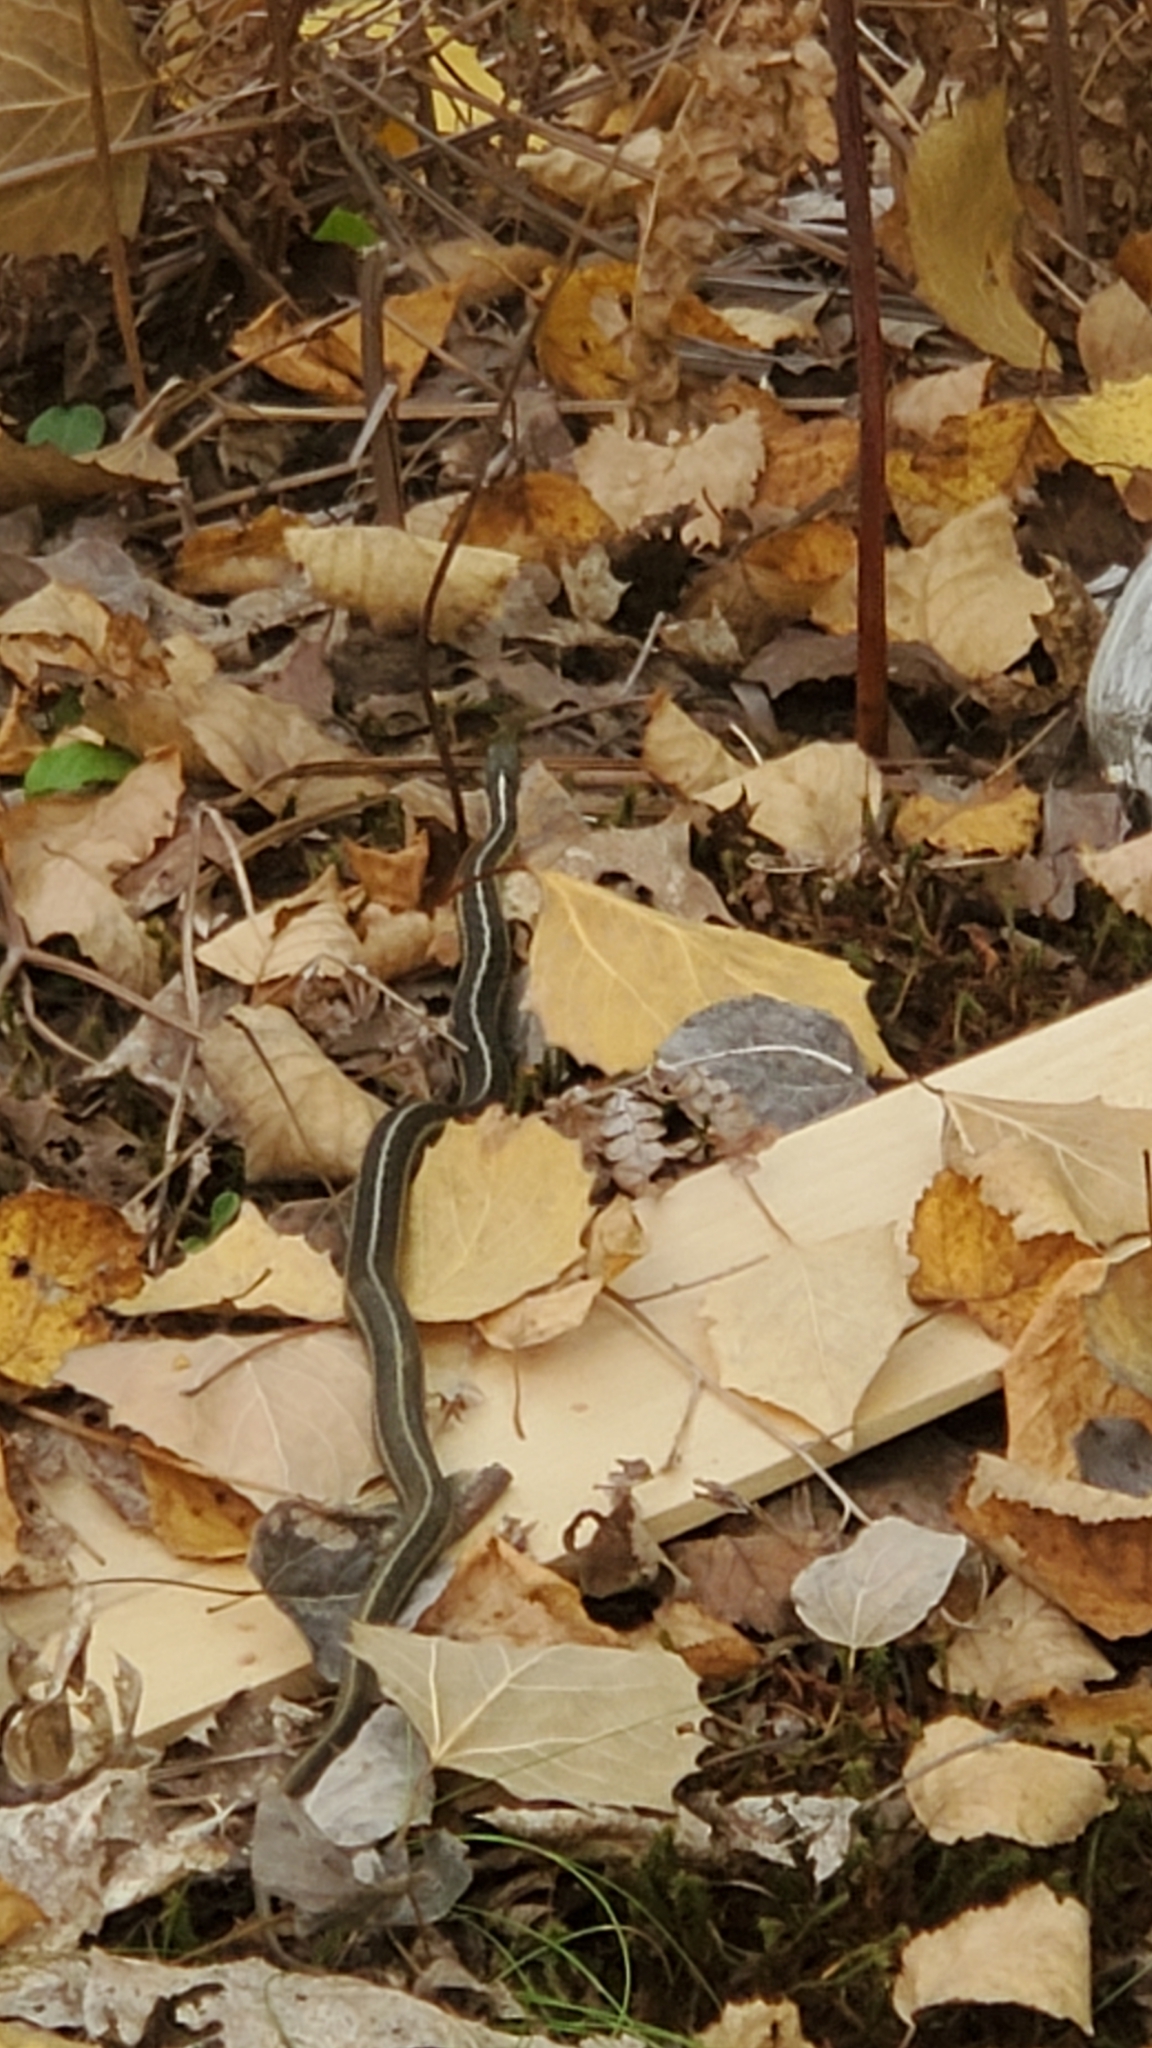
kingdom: Animalia
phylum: Chordata
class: Squamata
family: Colubridae
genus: Thamnophis
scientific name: Thamnophis sirtalis
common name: Common garter snake
